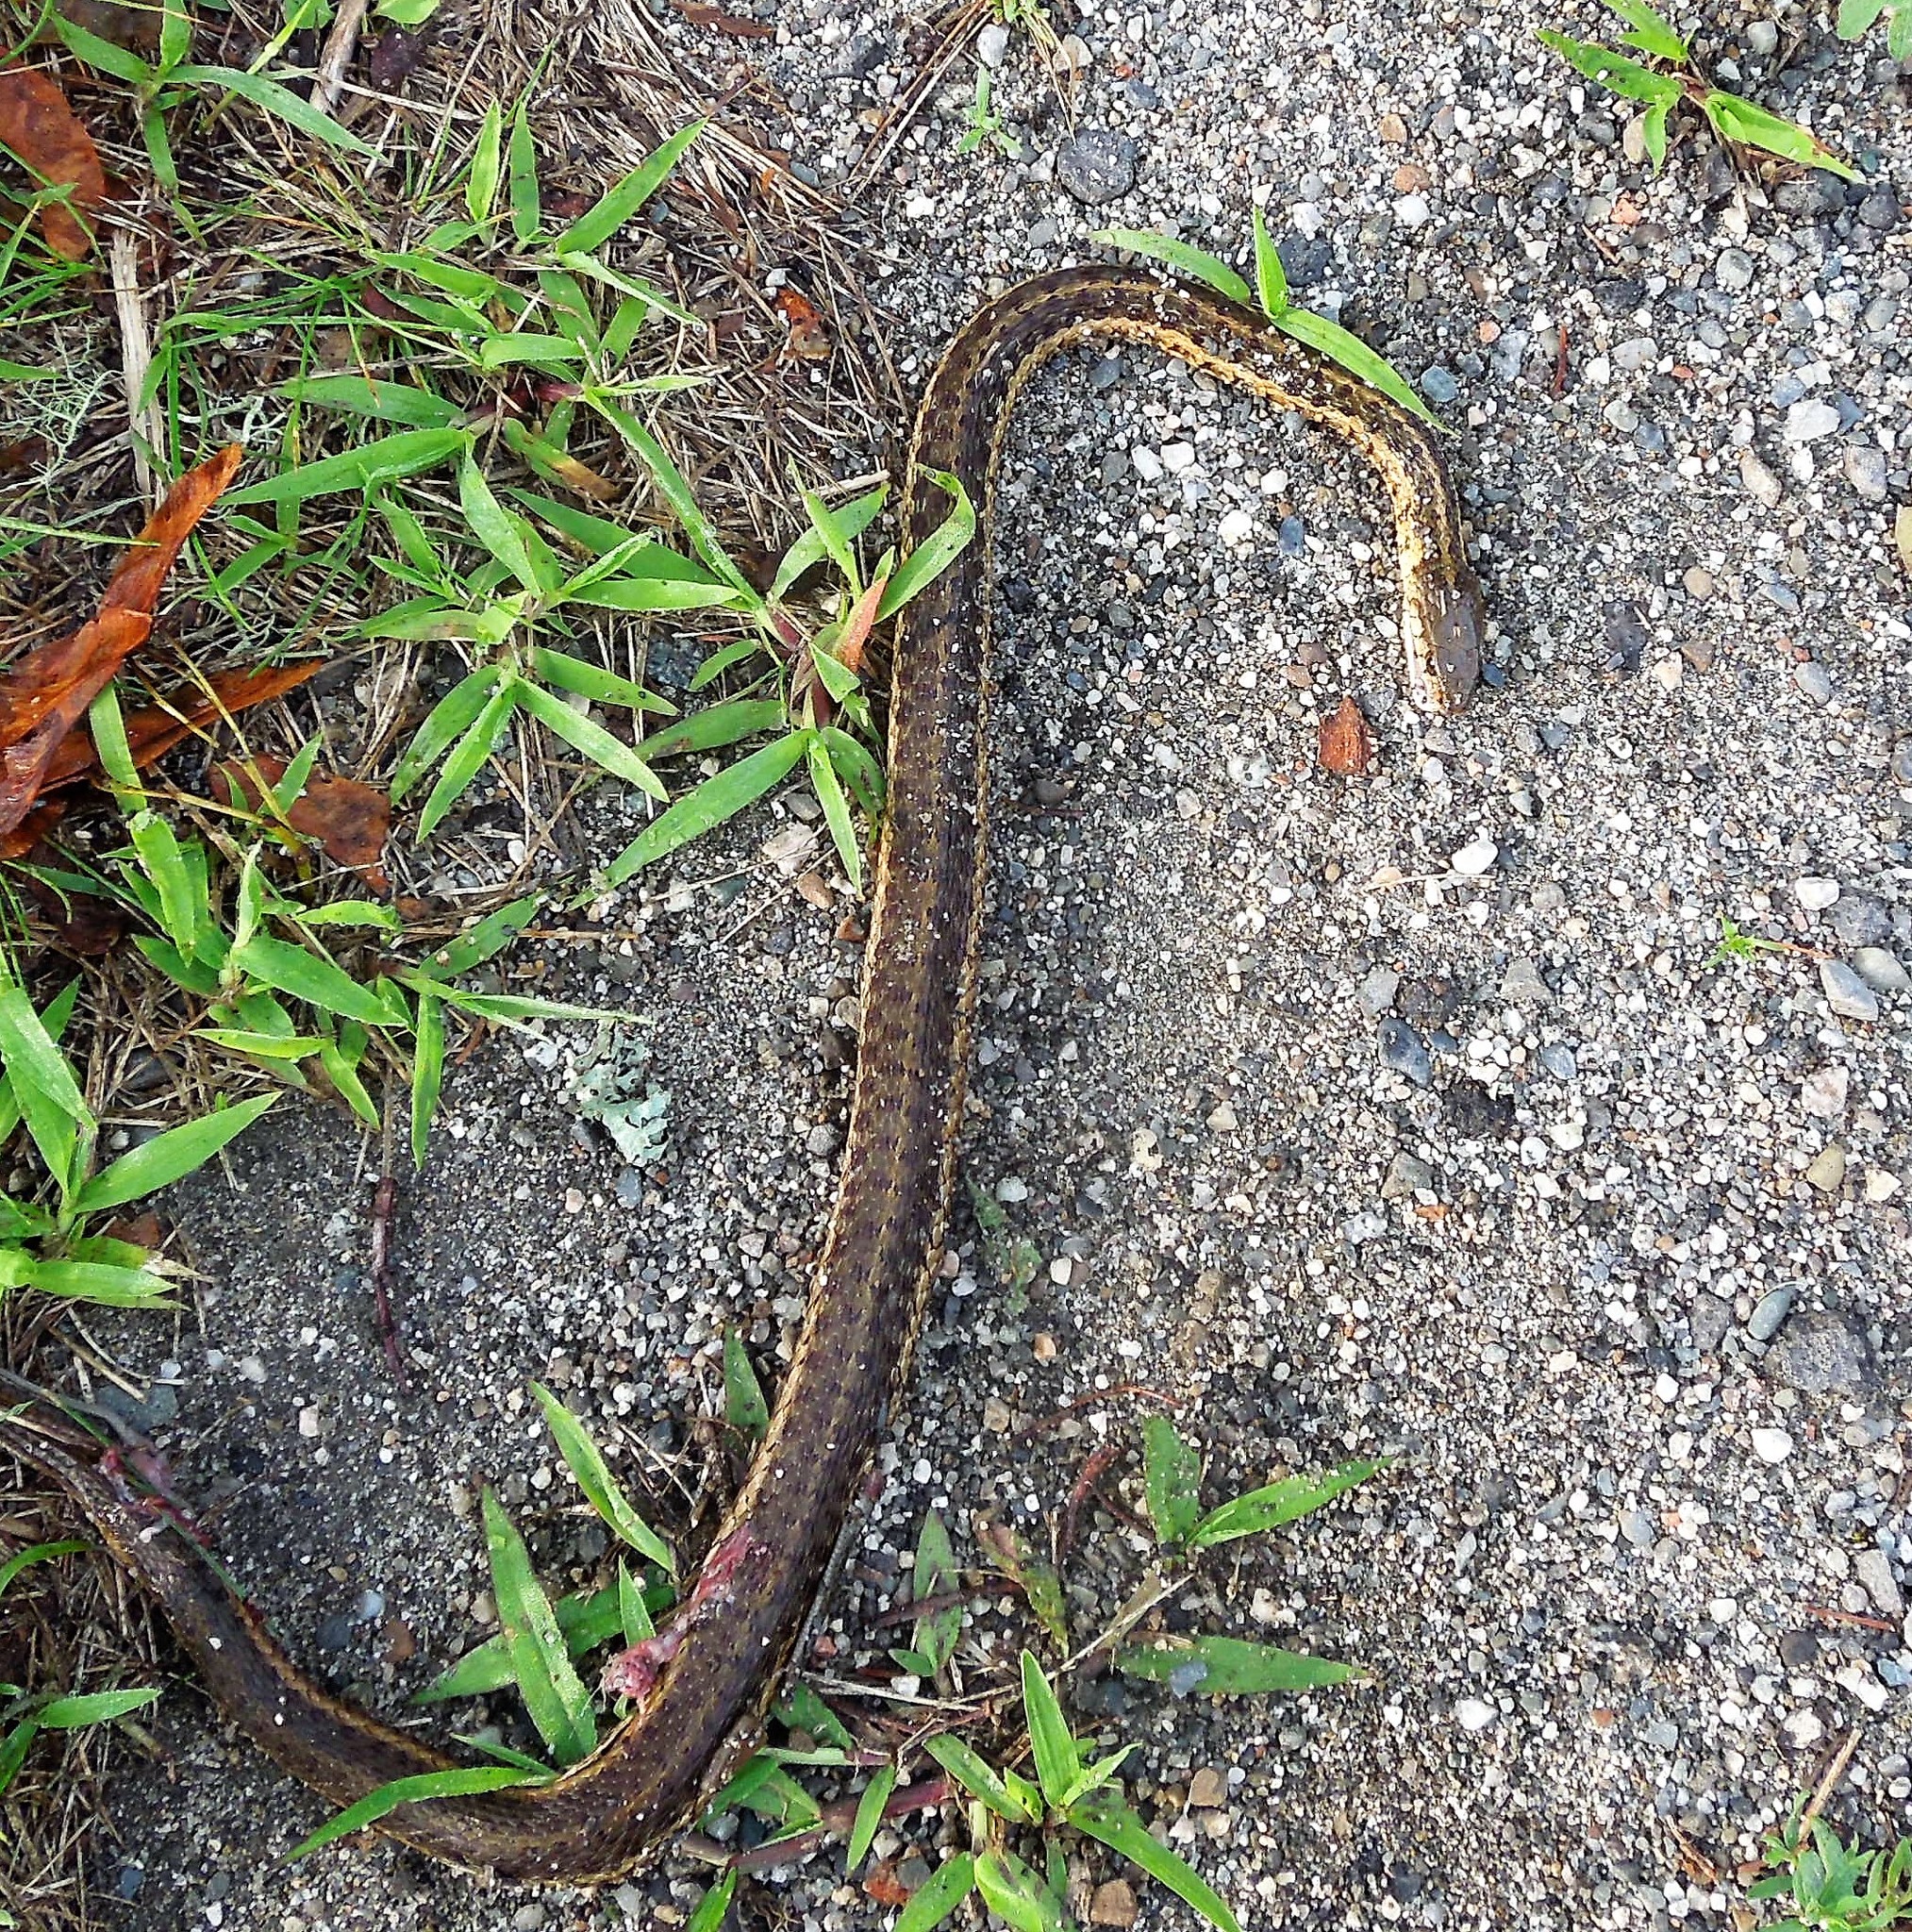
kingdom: Animalia
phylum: Chordata
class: Squamata
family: Colubridae
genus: Thamnophis
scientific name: Thamnophis sirtalis
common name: Common garter snake
